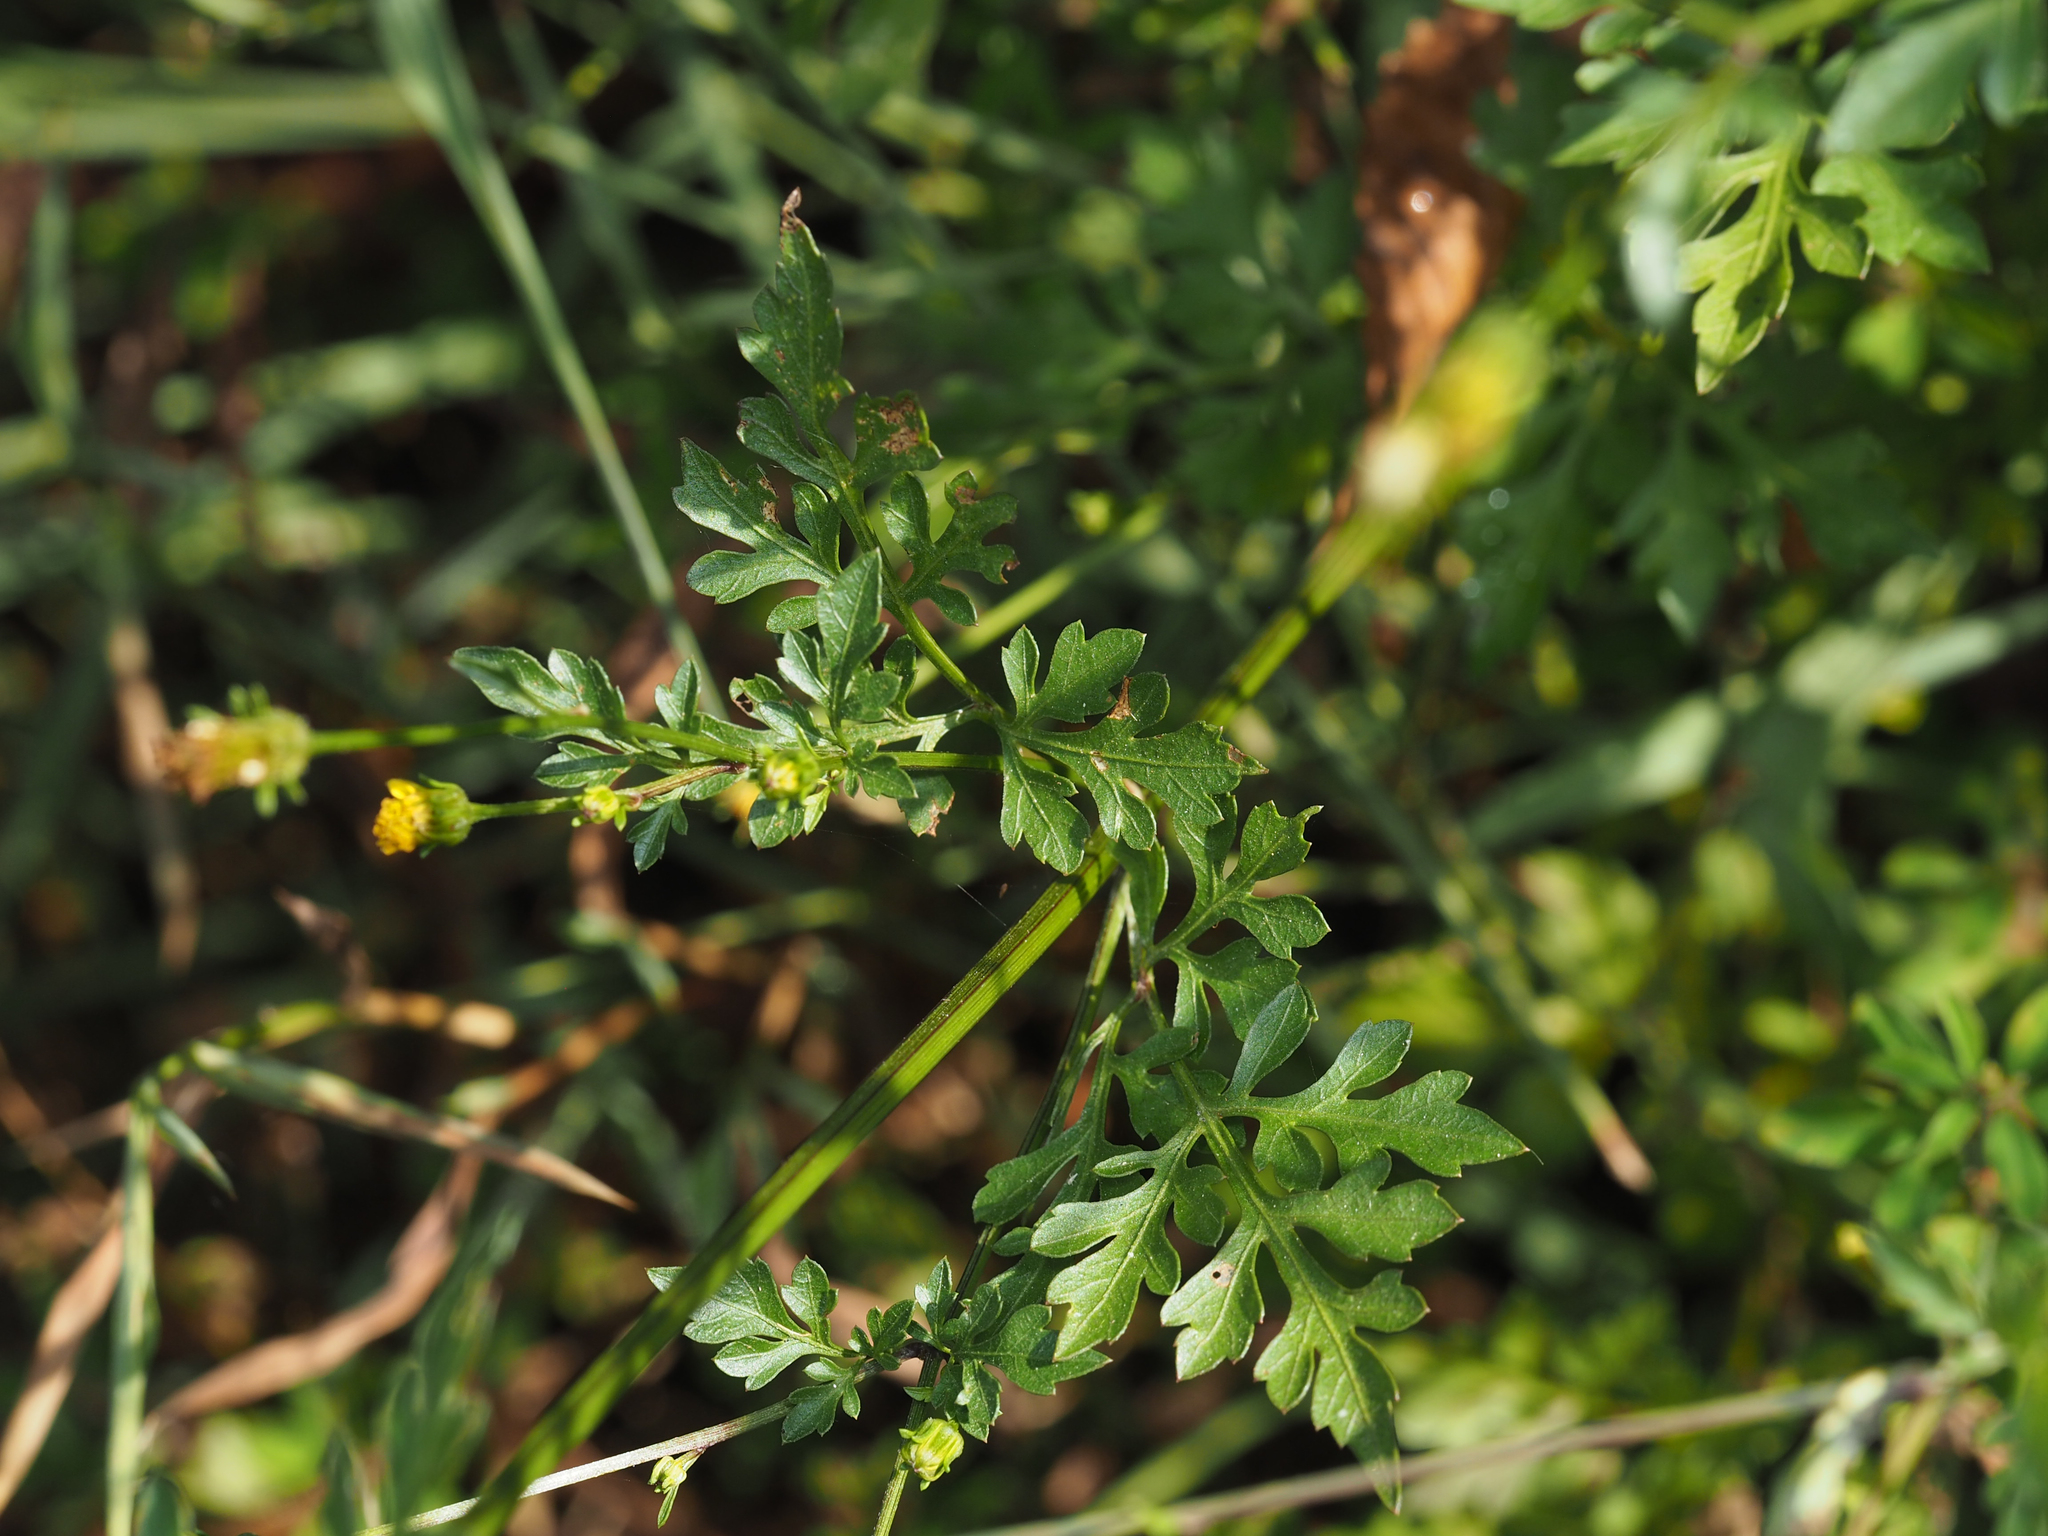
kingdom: Plantae
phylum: Tracheophyta
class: Magnoliopsida
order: Asterales
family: Asteraceae
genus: Bidens
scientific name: Bidens bipinnata
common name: Spanish-needles
